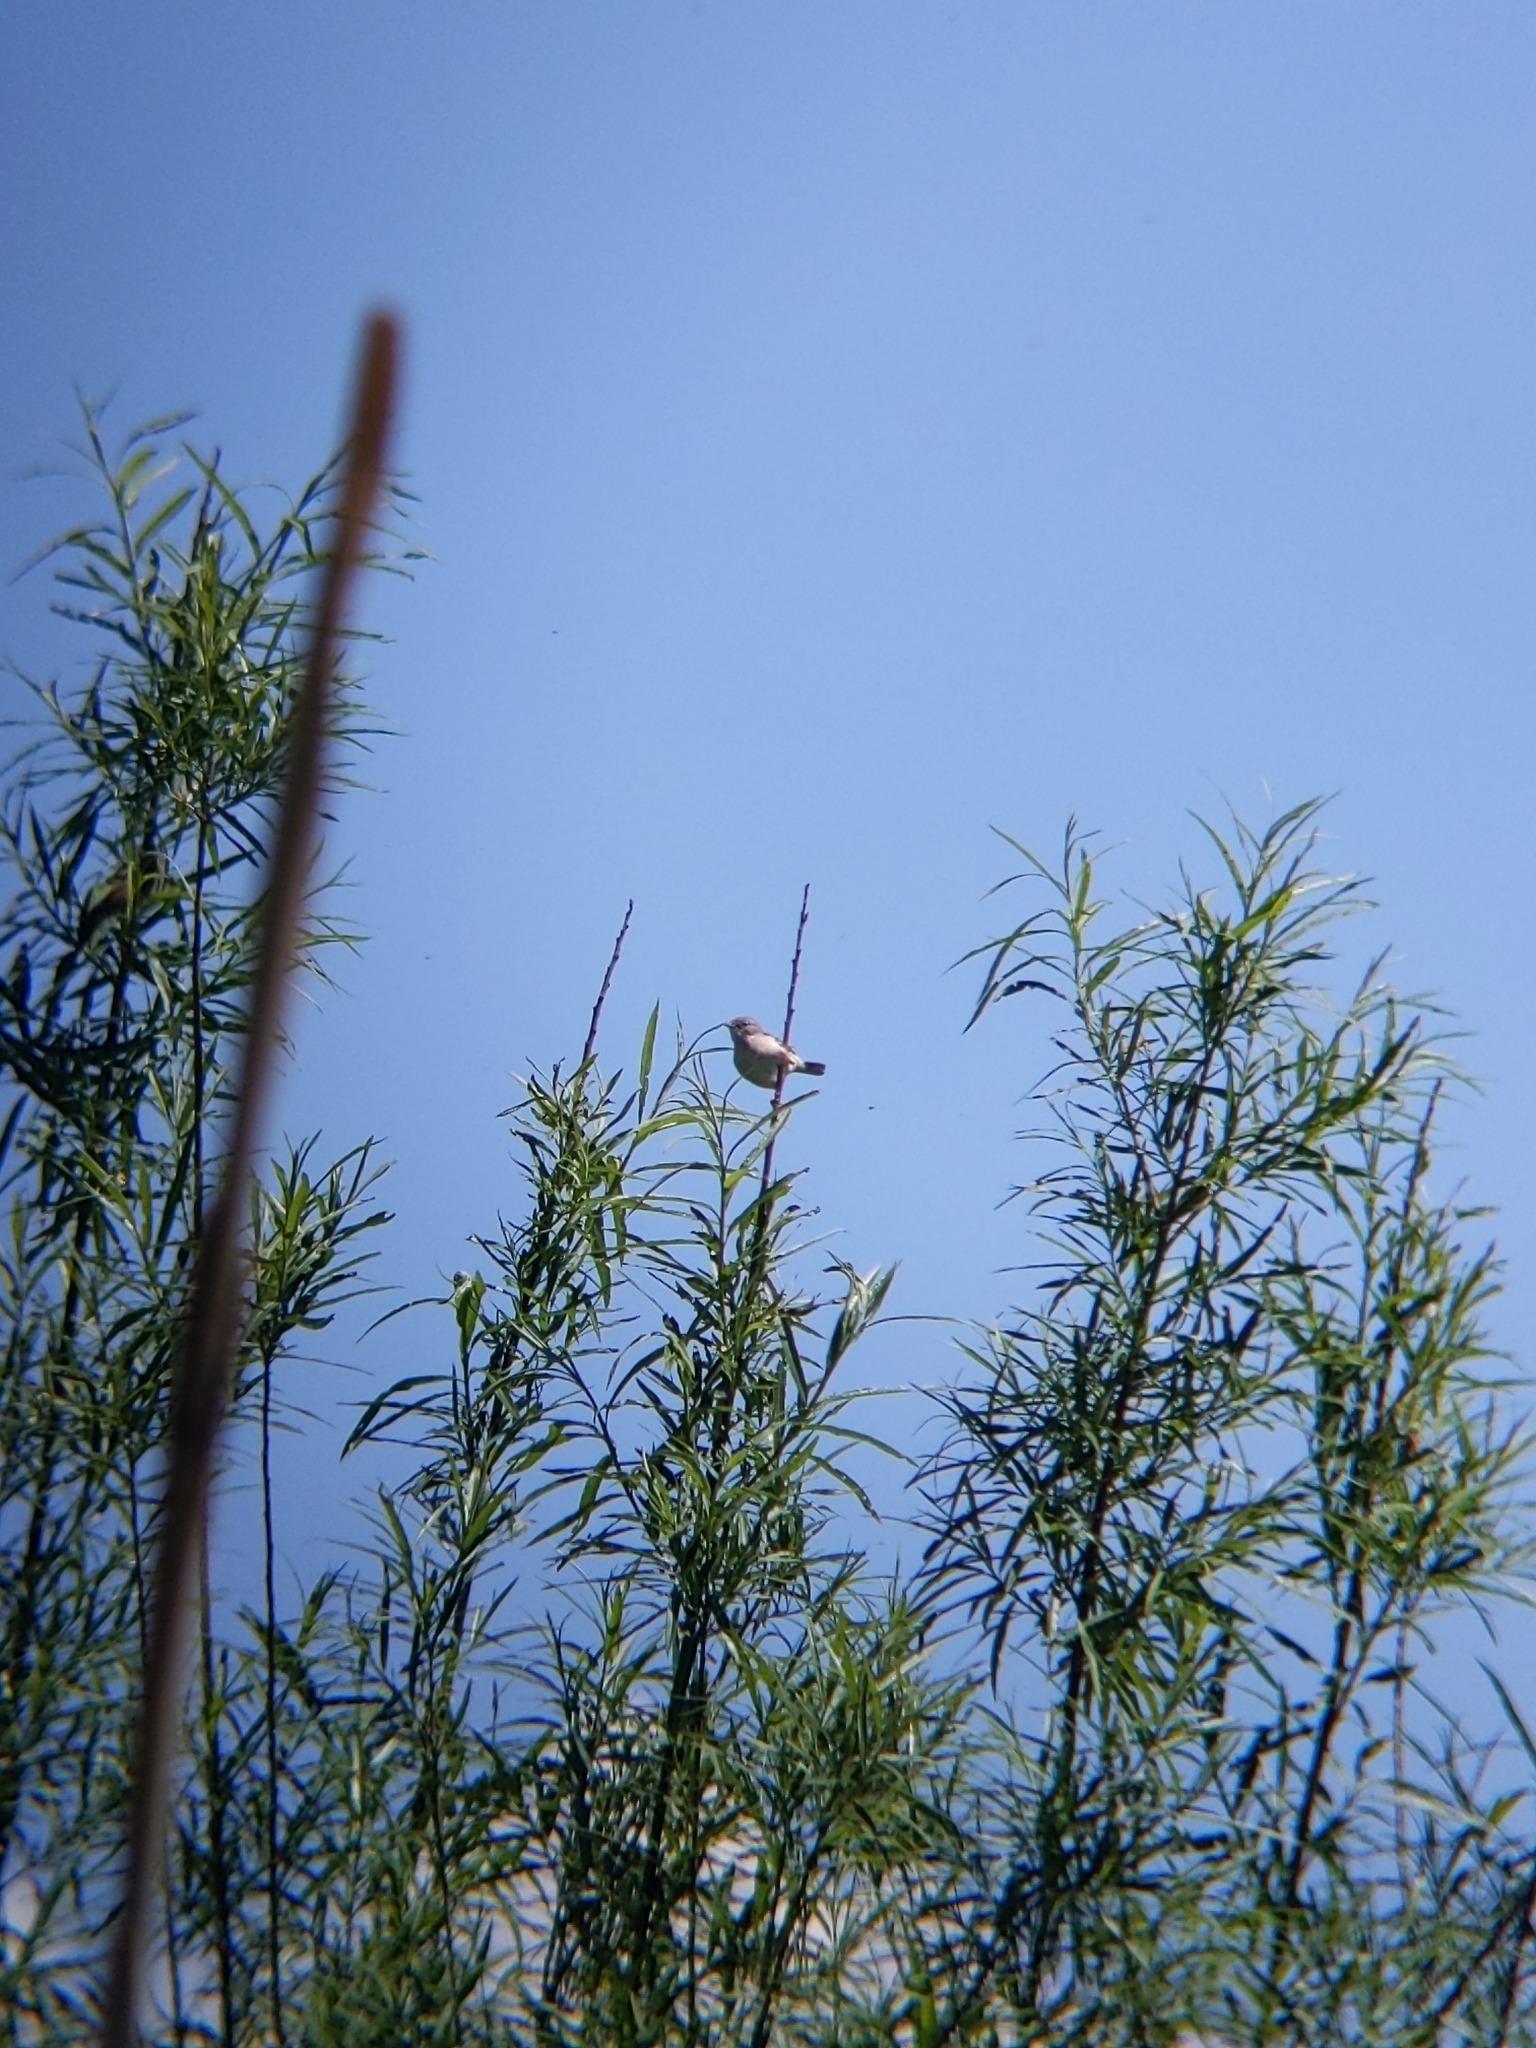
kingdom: Animalia
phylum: Chordata
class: Aves
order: Passeriformes
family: Sylviidae
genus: Sylvia
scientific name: Sylvia communis
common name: Common whitethroat
